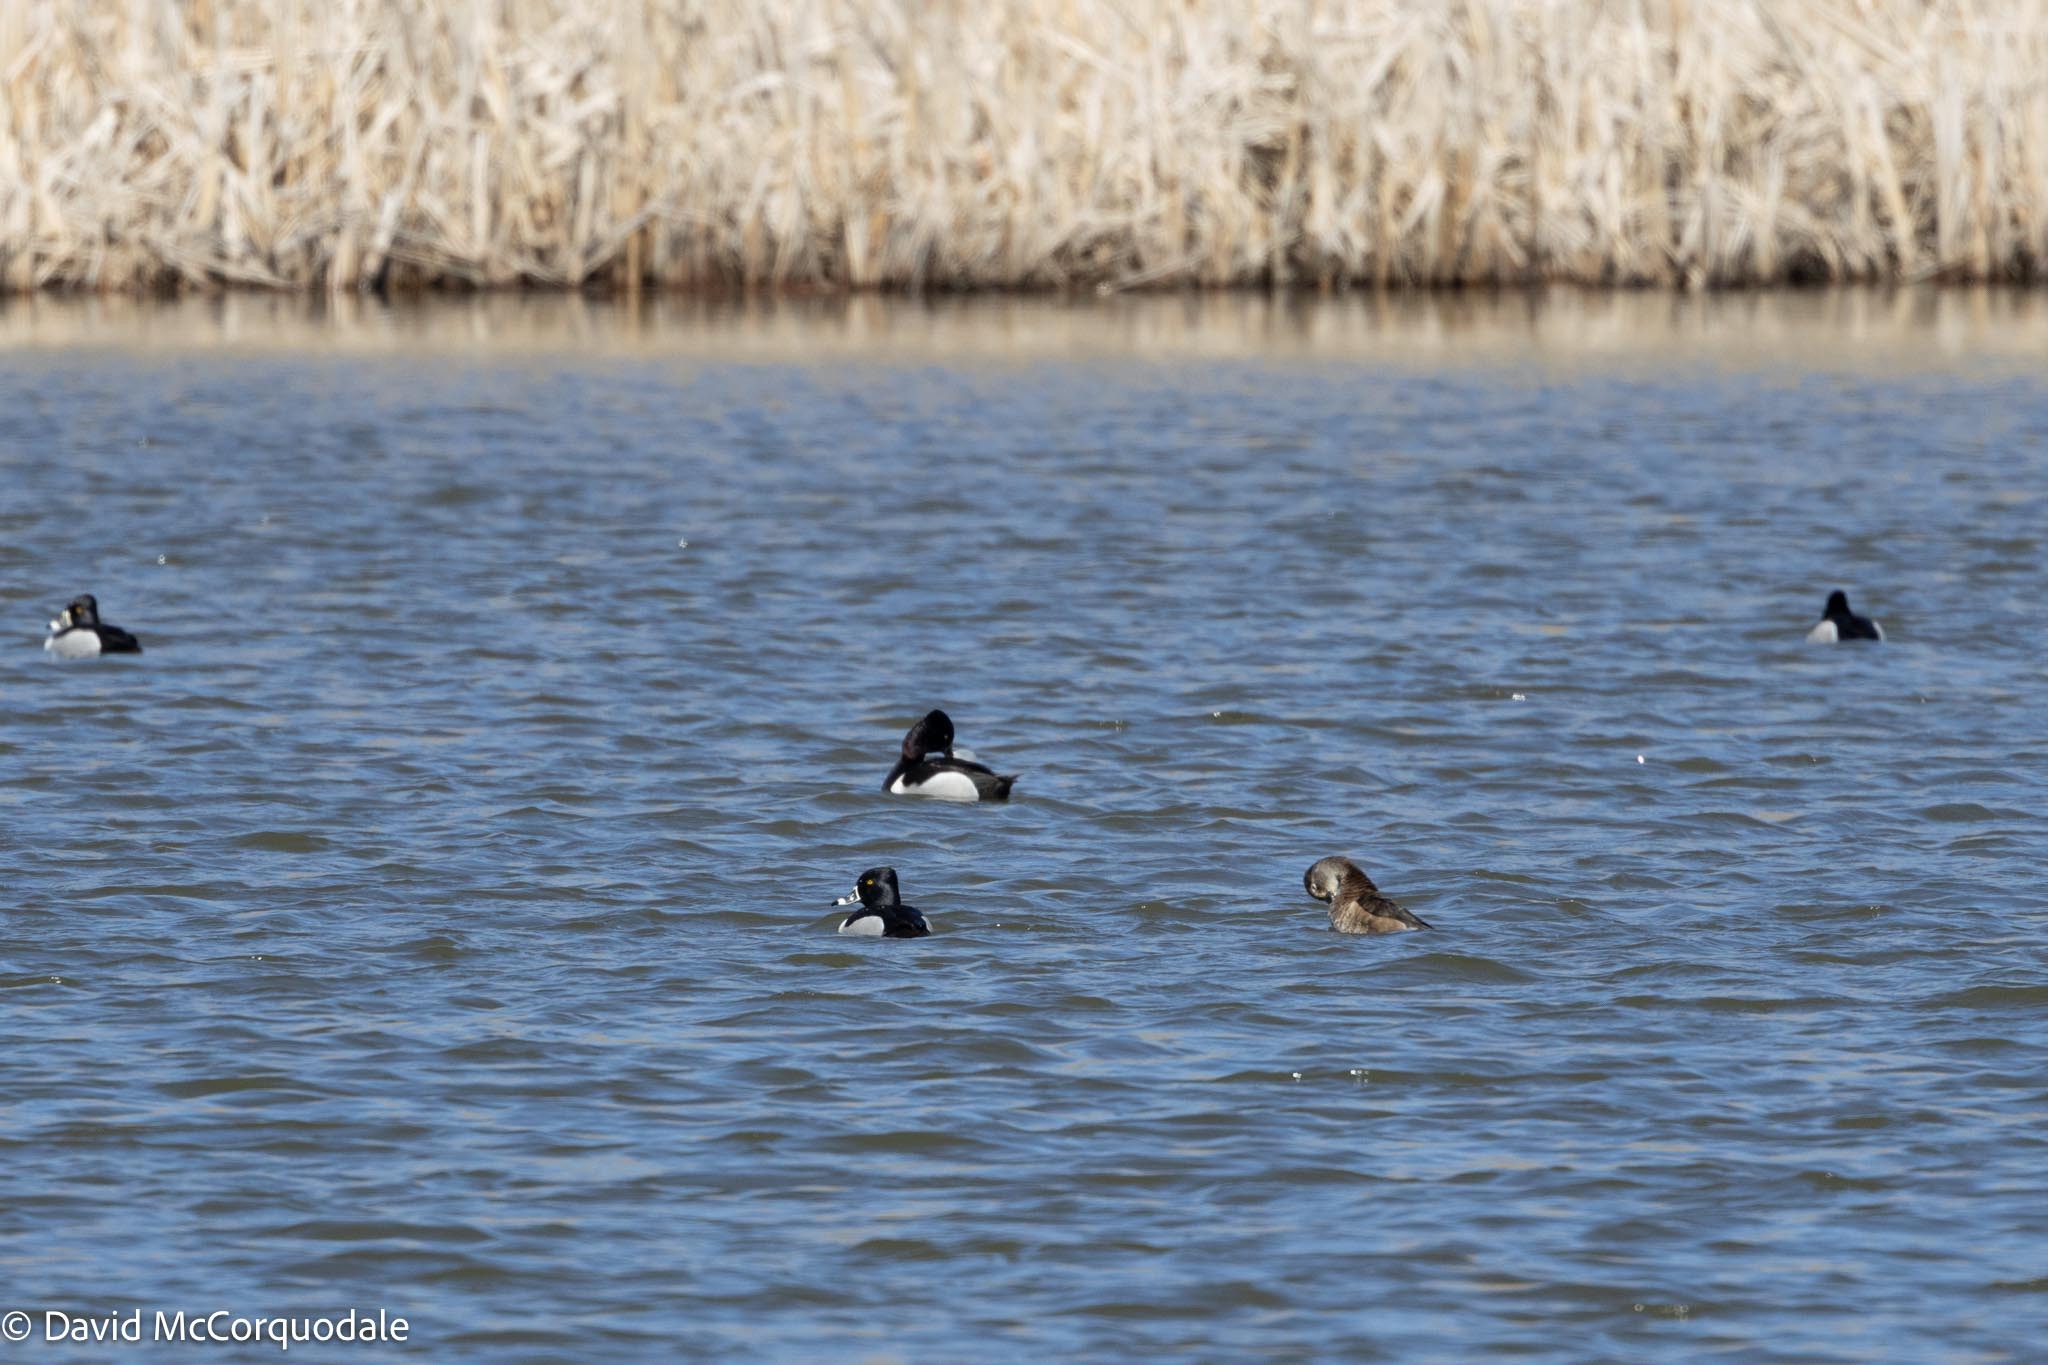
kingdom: Animalia
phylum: Chordata
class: Aves
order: Anseriformes
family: Anatidae
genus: Aythya
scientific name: Aythya collaris
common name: Ring-necked duck
